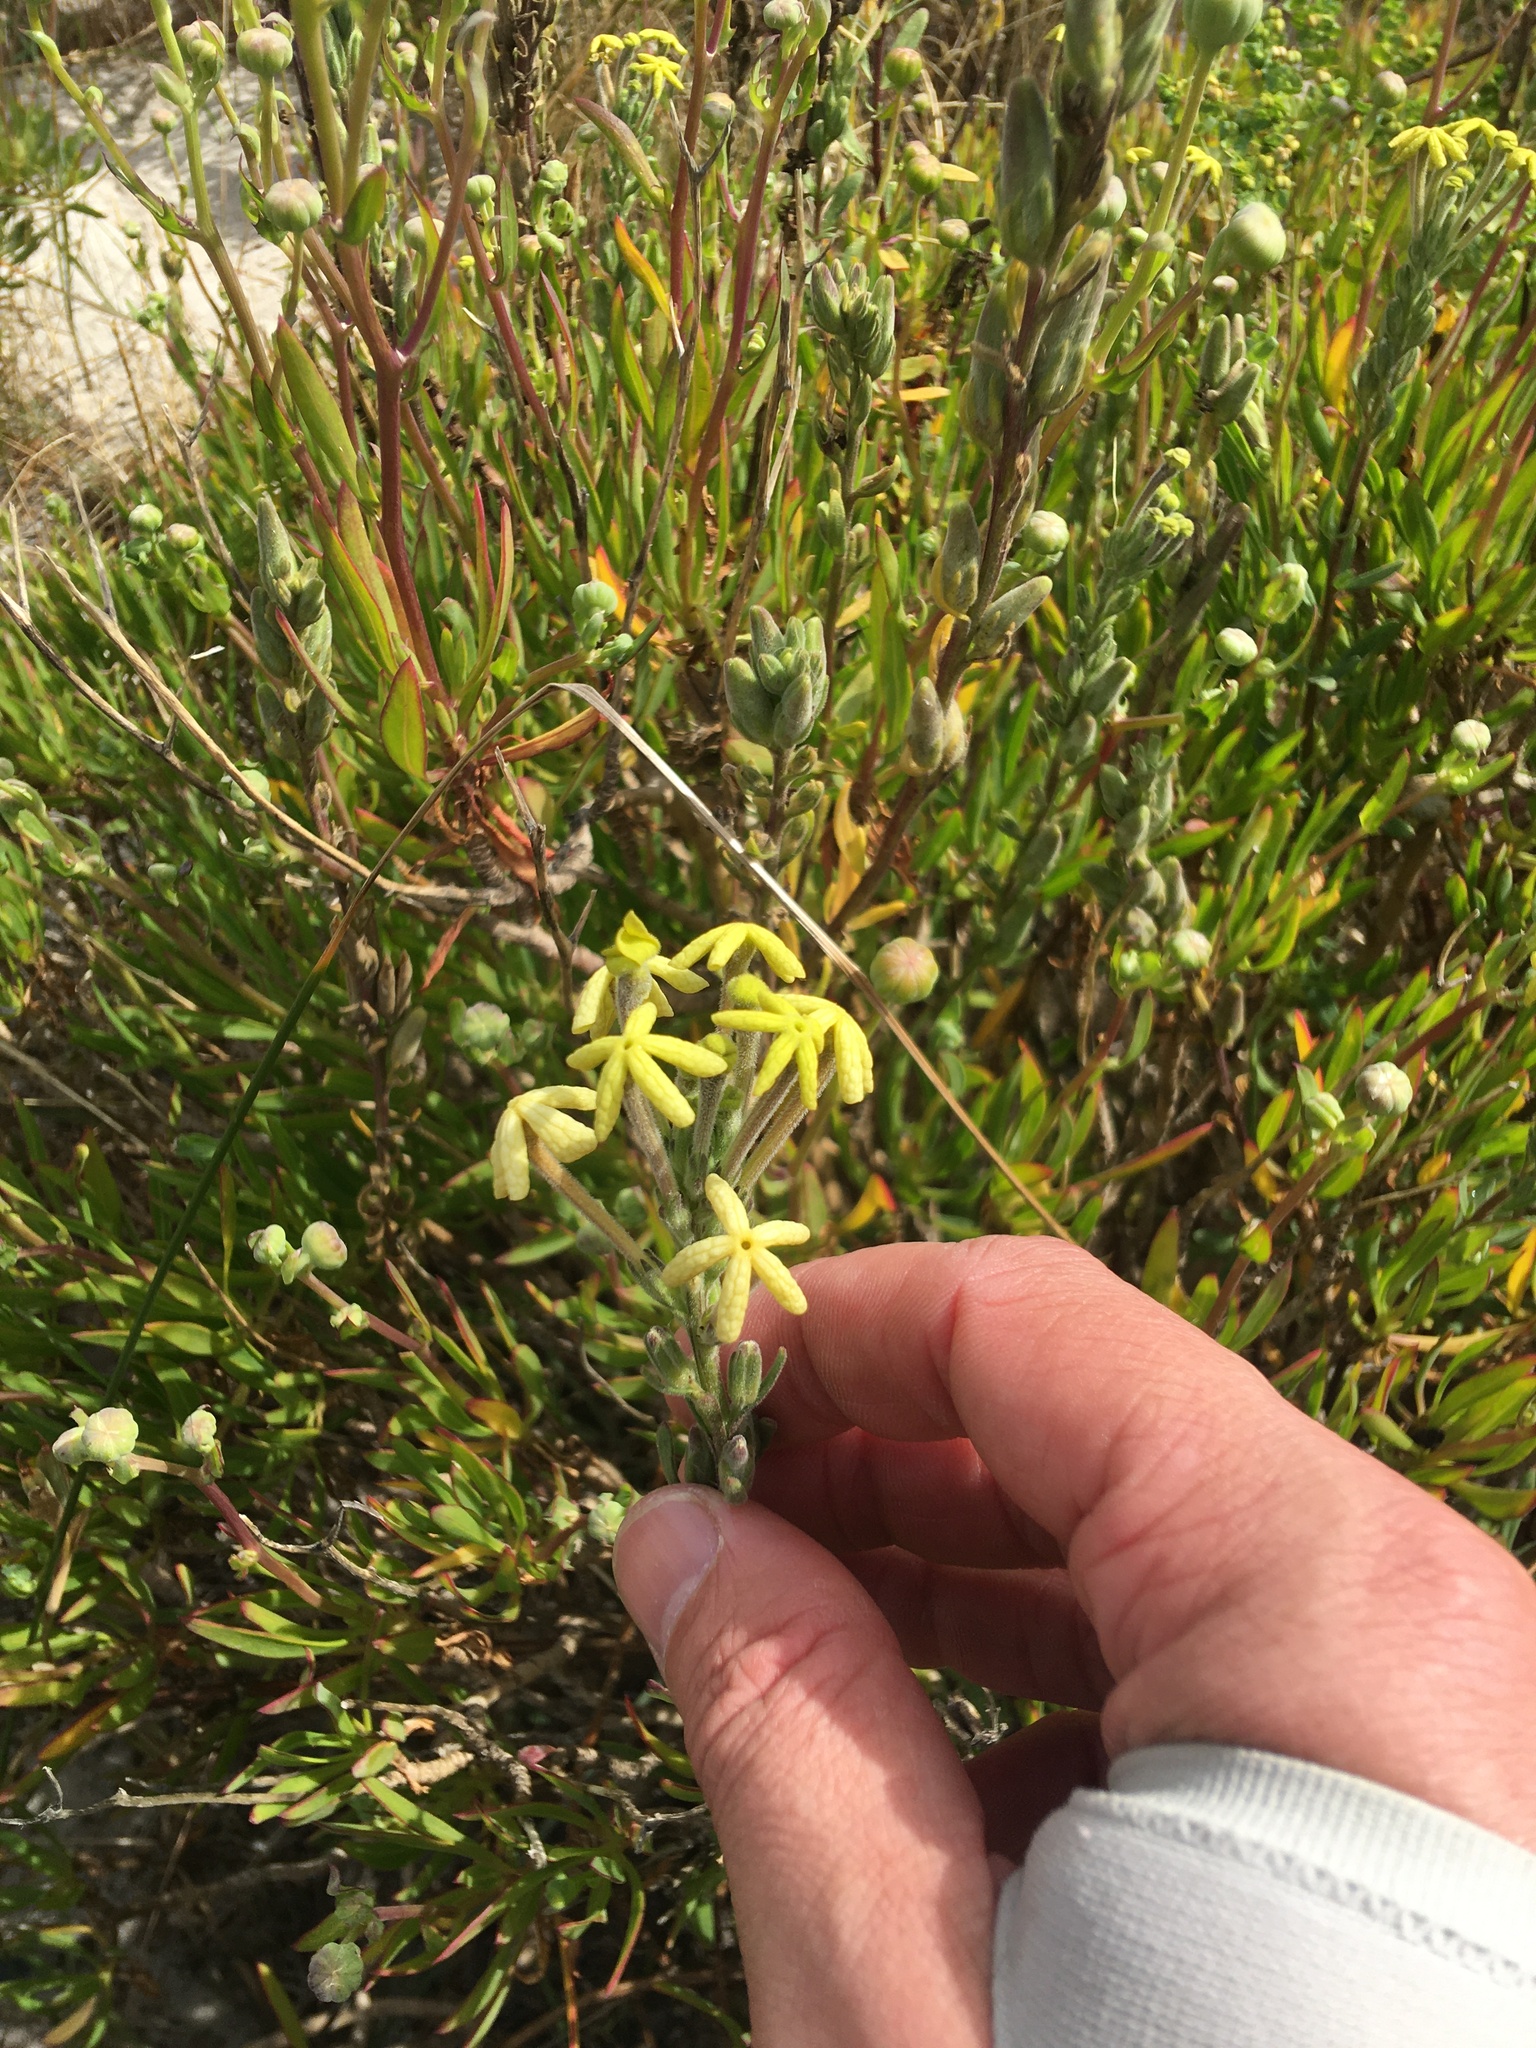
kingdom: Plantae
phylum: Tracheophyta
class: Magnoliopsida
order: Lamiales
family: Scrophulariaceae
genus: Lyperia
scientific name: Lyperia lychnidea
